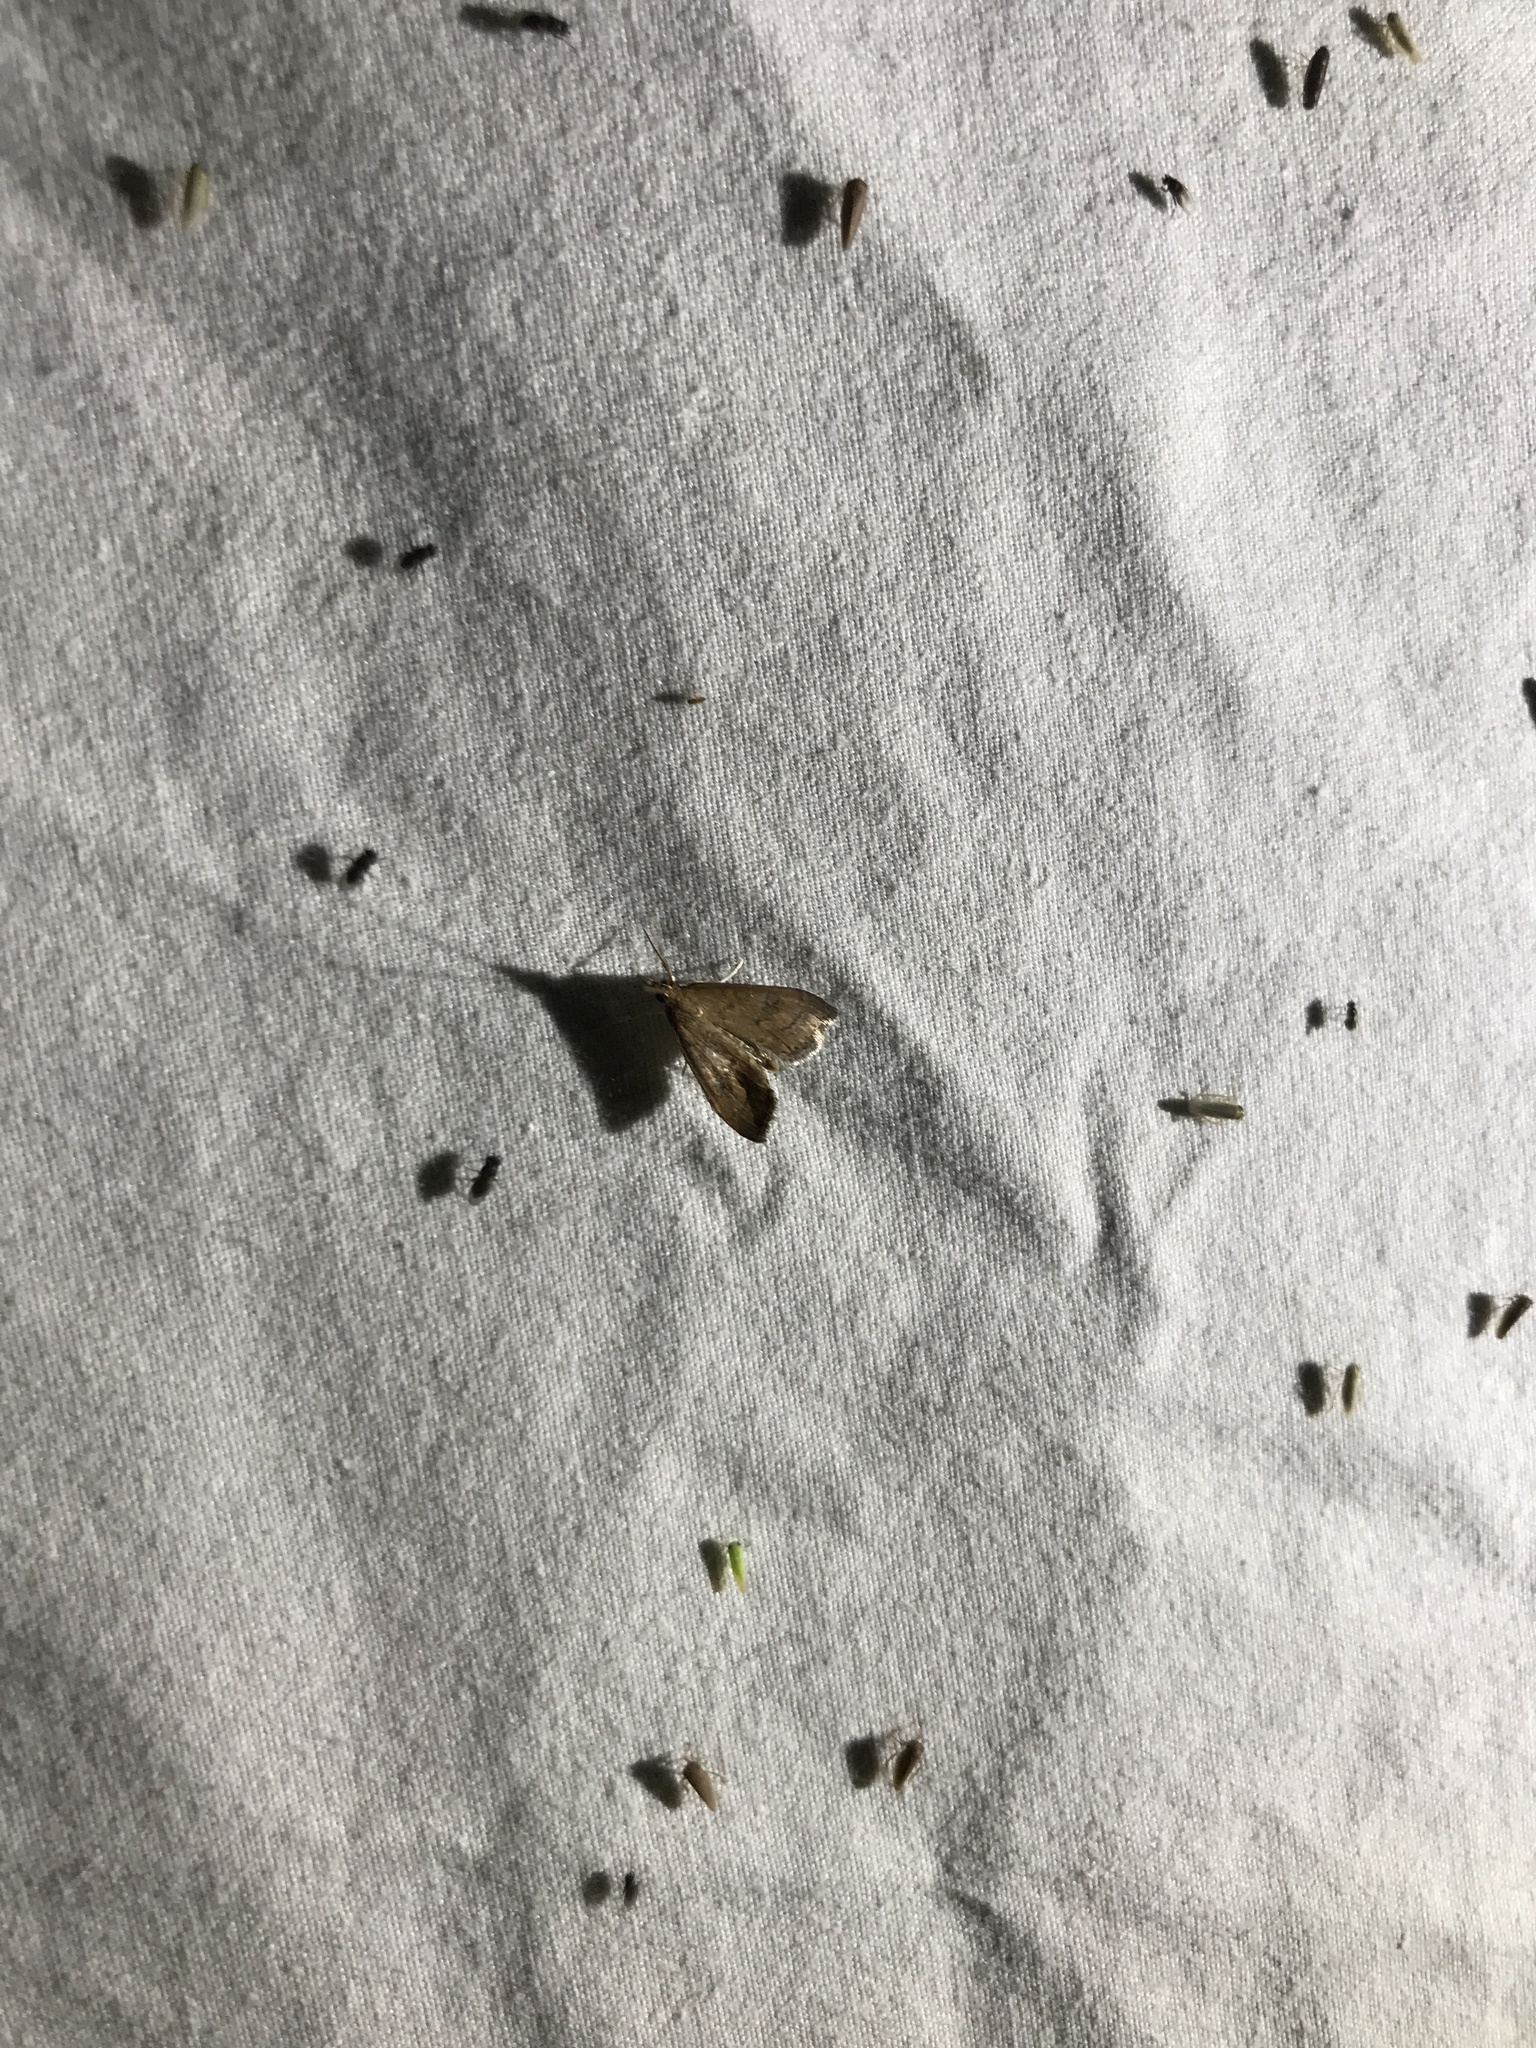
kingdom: Animalia
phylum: Arthropoda
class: Insecta
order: Lepidoptera
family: Crambidae
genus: Udea
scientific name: Udea rubigalis
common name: Celery leaftier moth
